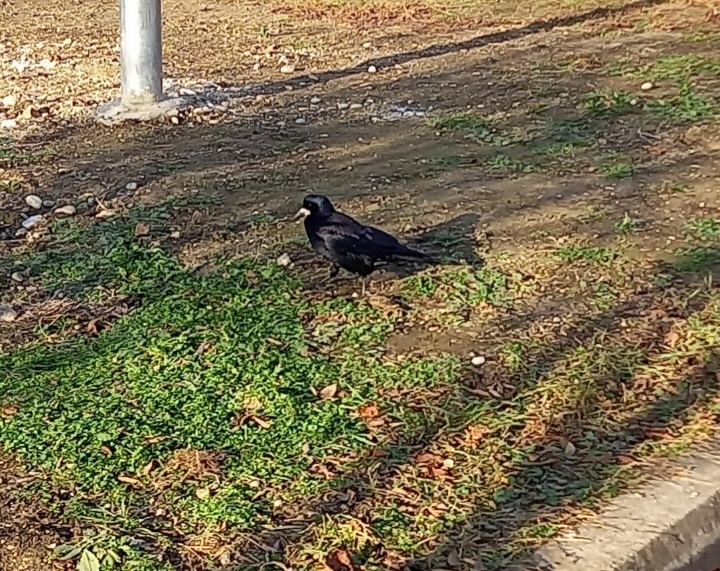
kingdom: Animalia
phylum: Chordata
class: Aves
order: Passeriformes
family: Corvidae
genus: Corvus
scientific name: Corvus frugilegus
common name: Rook
